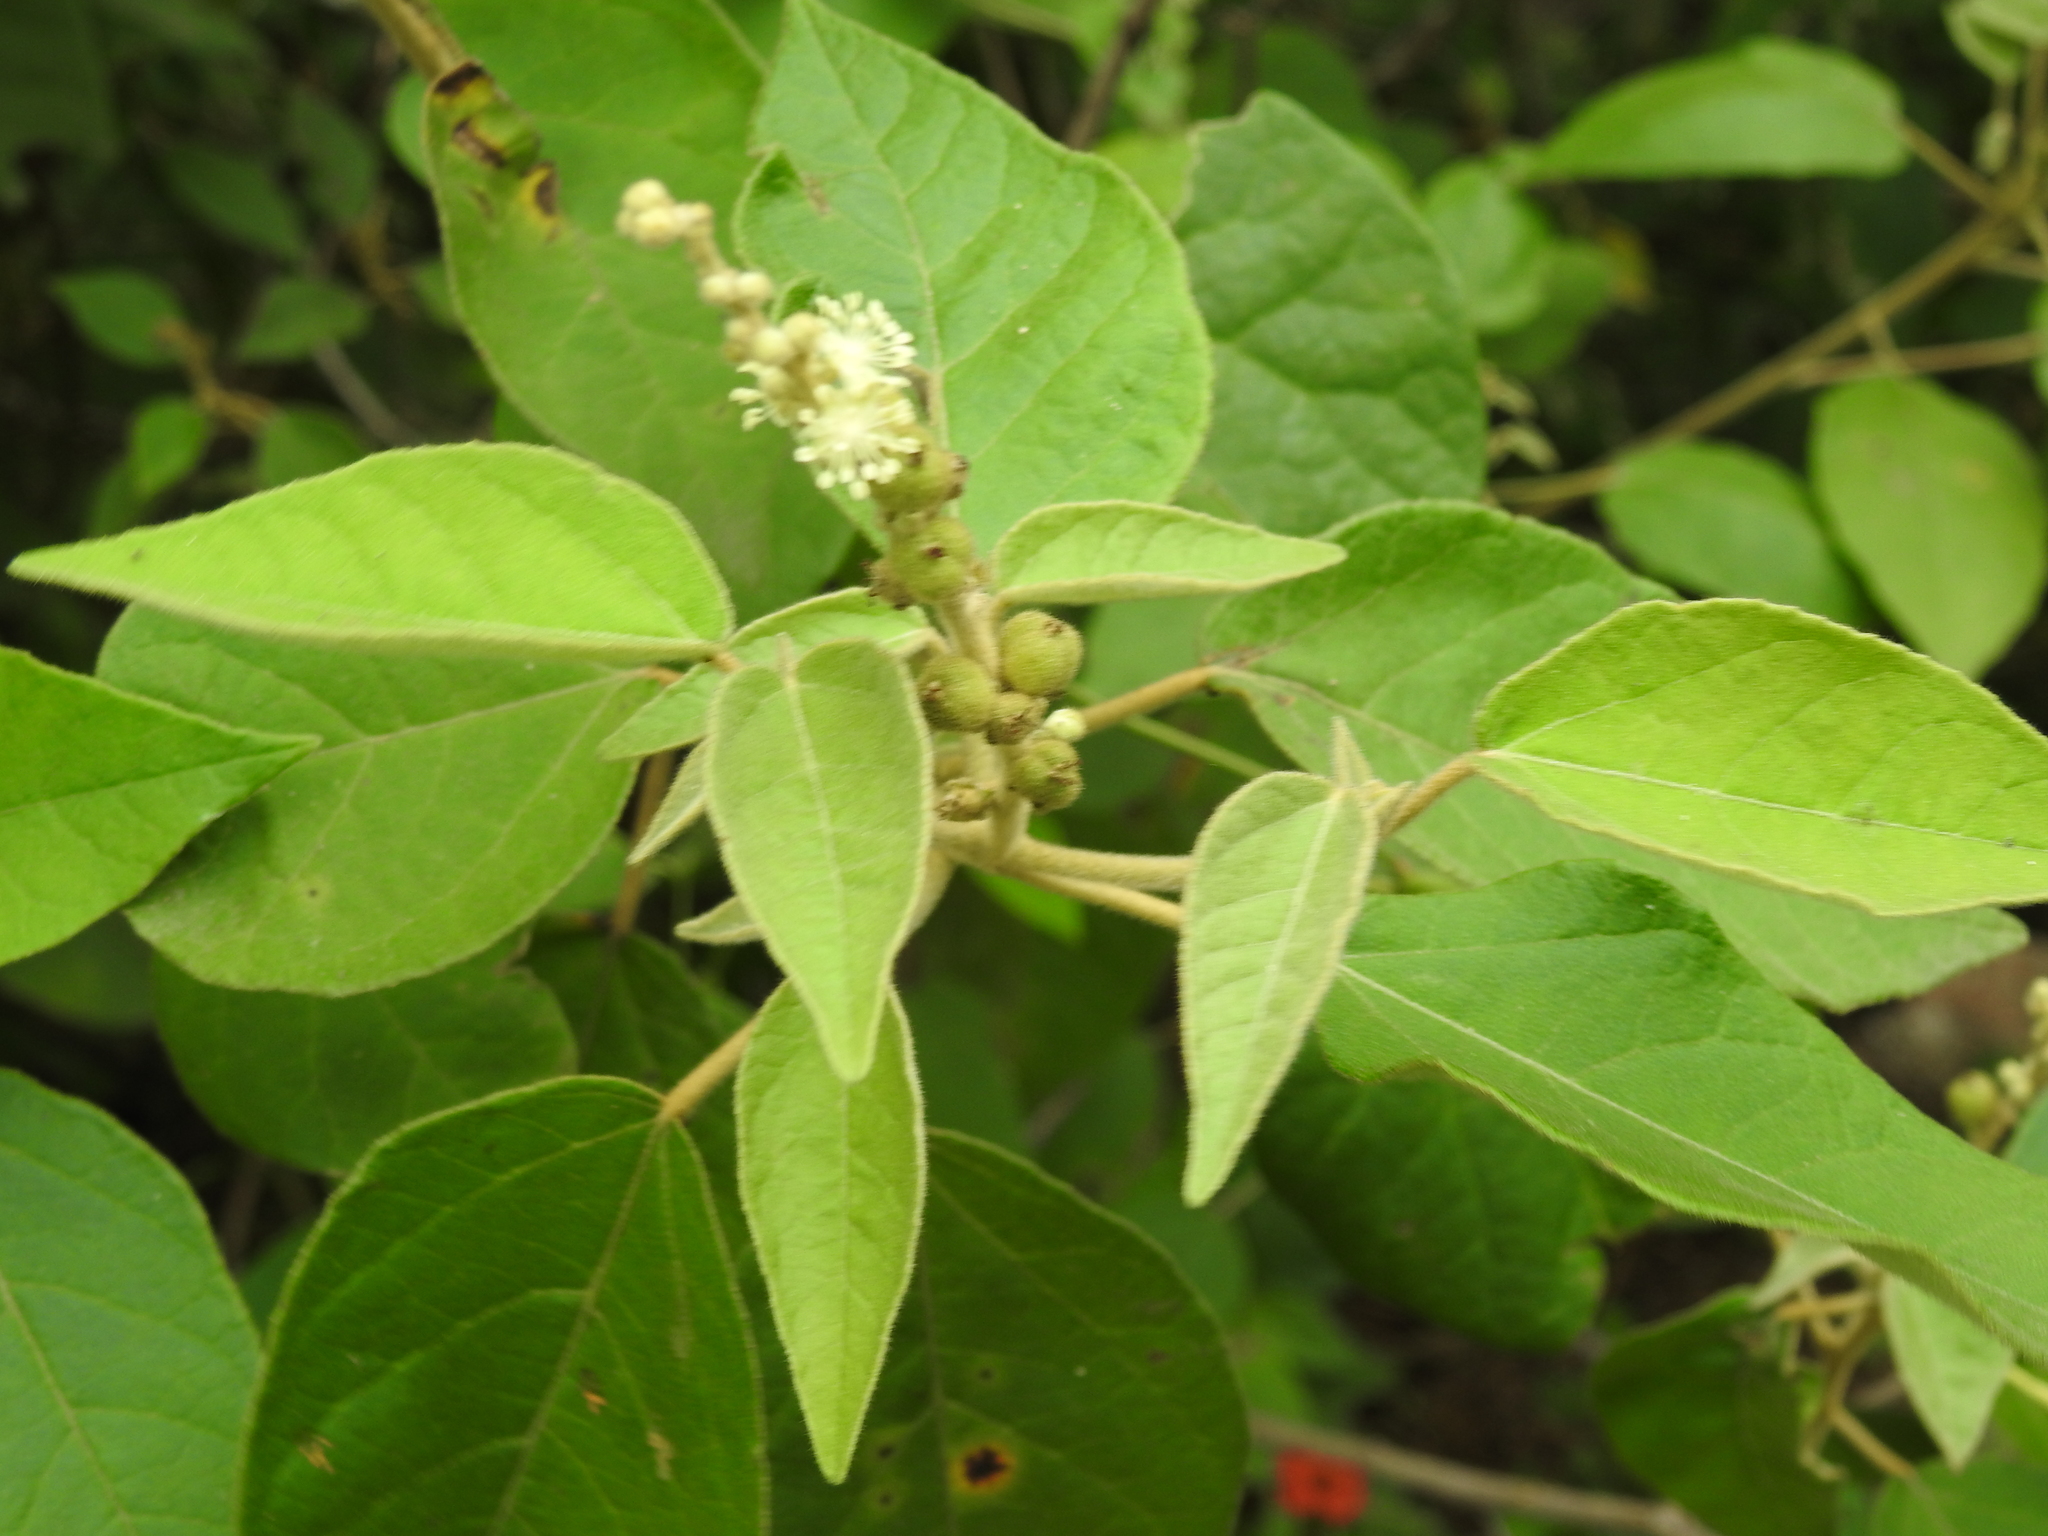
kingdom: Plantae
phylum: Tracheophyta
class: Magnoliopsida
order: Malpighiales
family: Euphorbiaceae
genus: Croton
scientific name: Croton lachnostachyus
